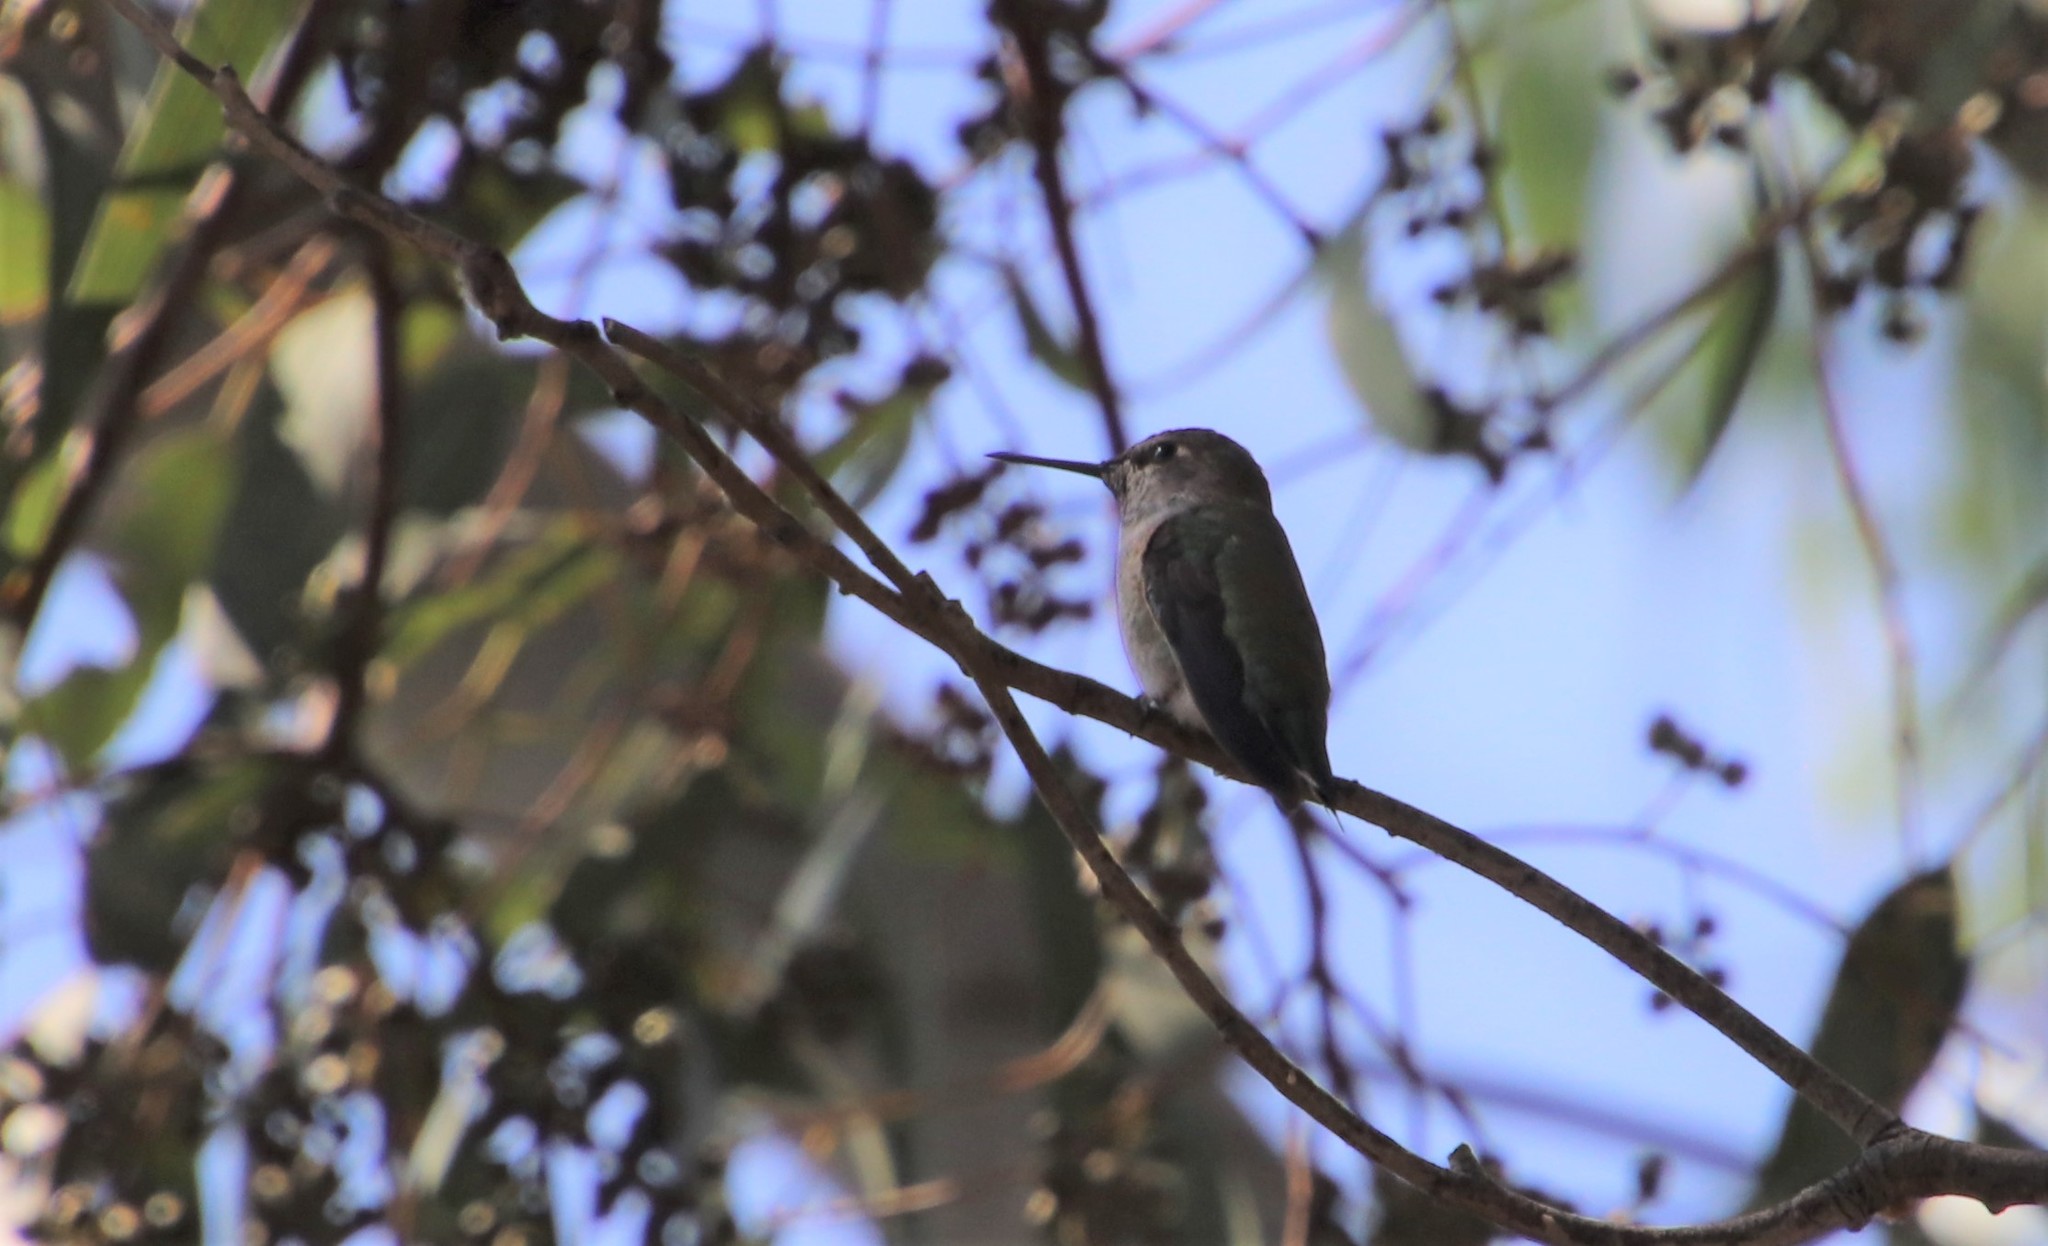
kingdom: Animalia
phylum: Chordata
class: Aves
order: Apodiformes
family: Trochilidae
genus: Calypte
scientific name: Calypte anna
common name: Anna's hummingbird
